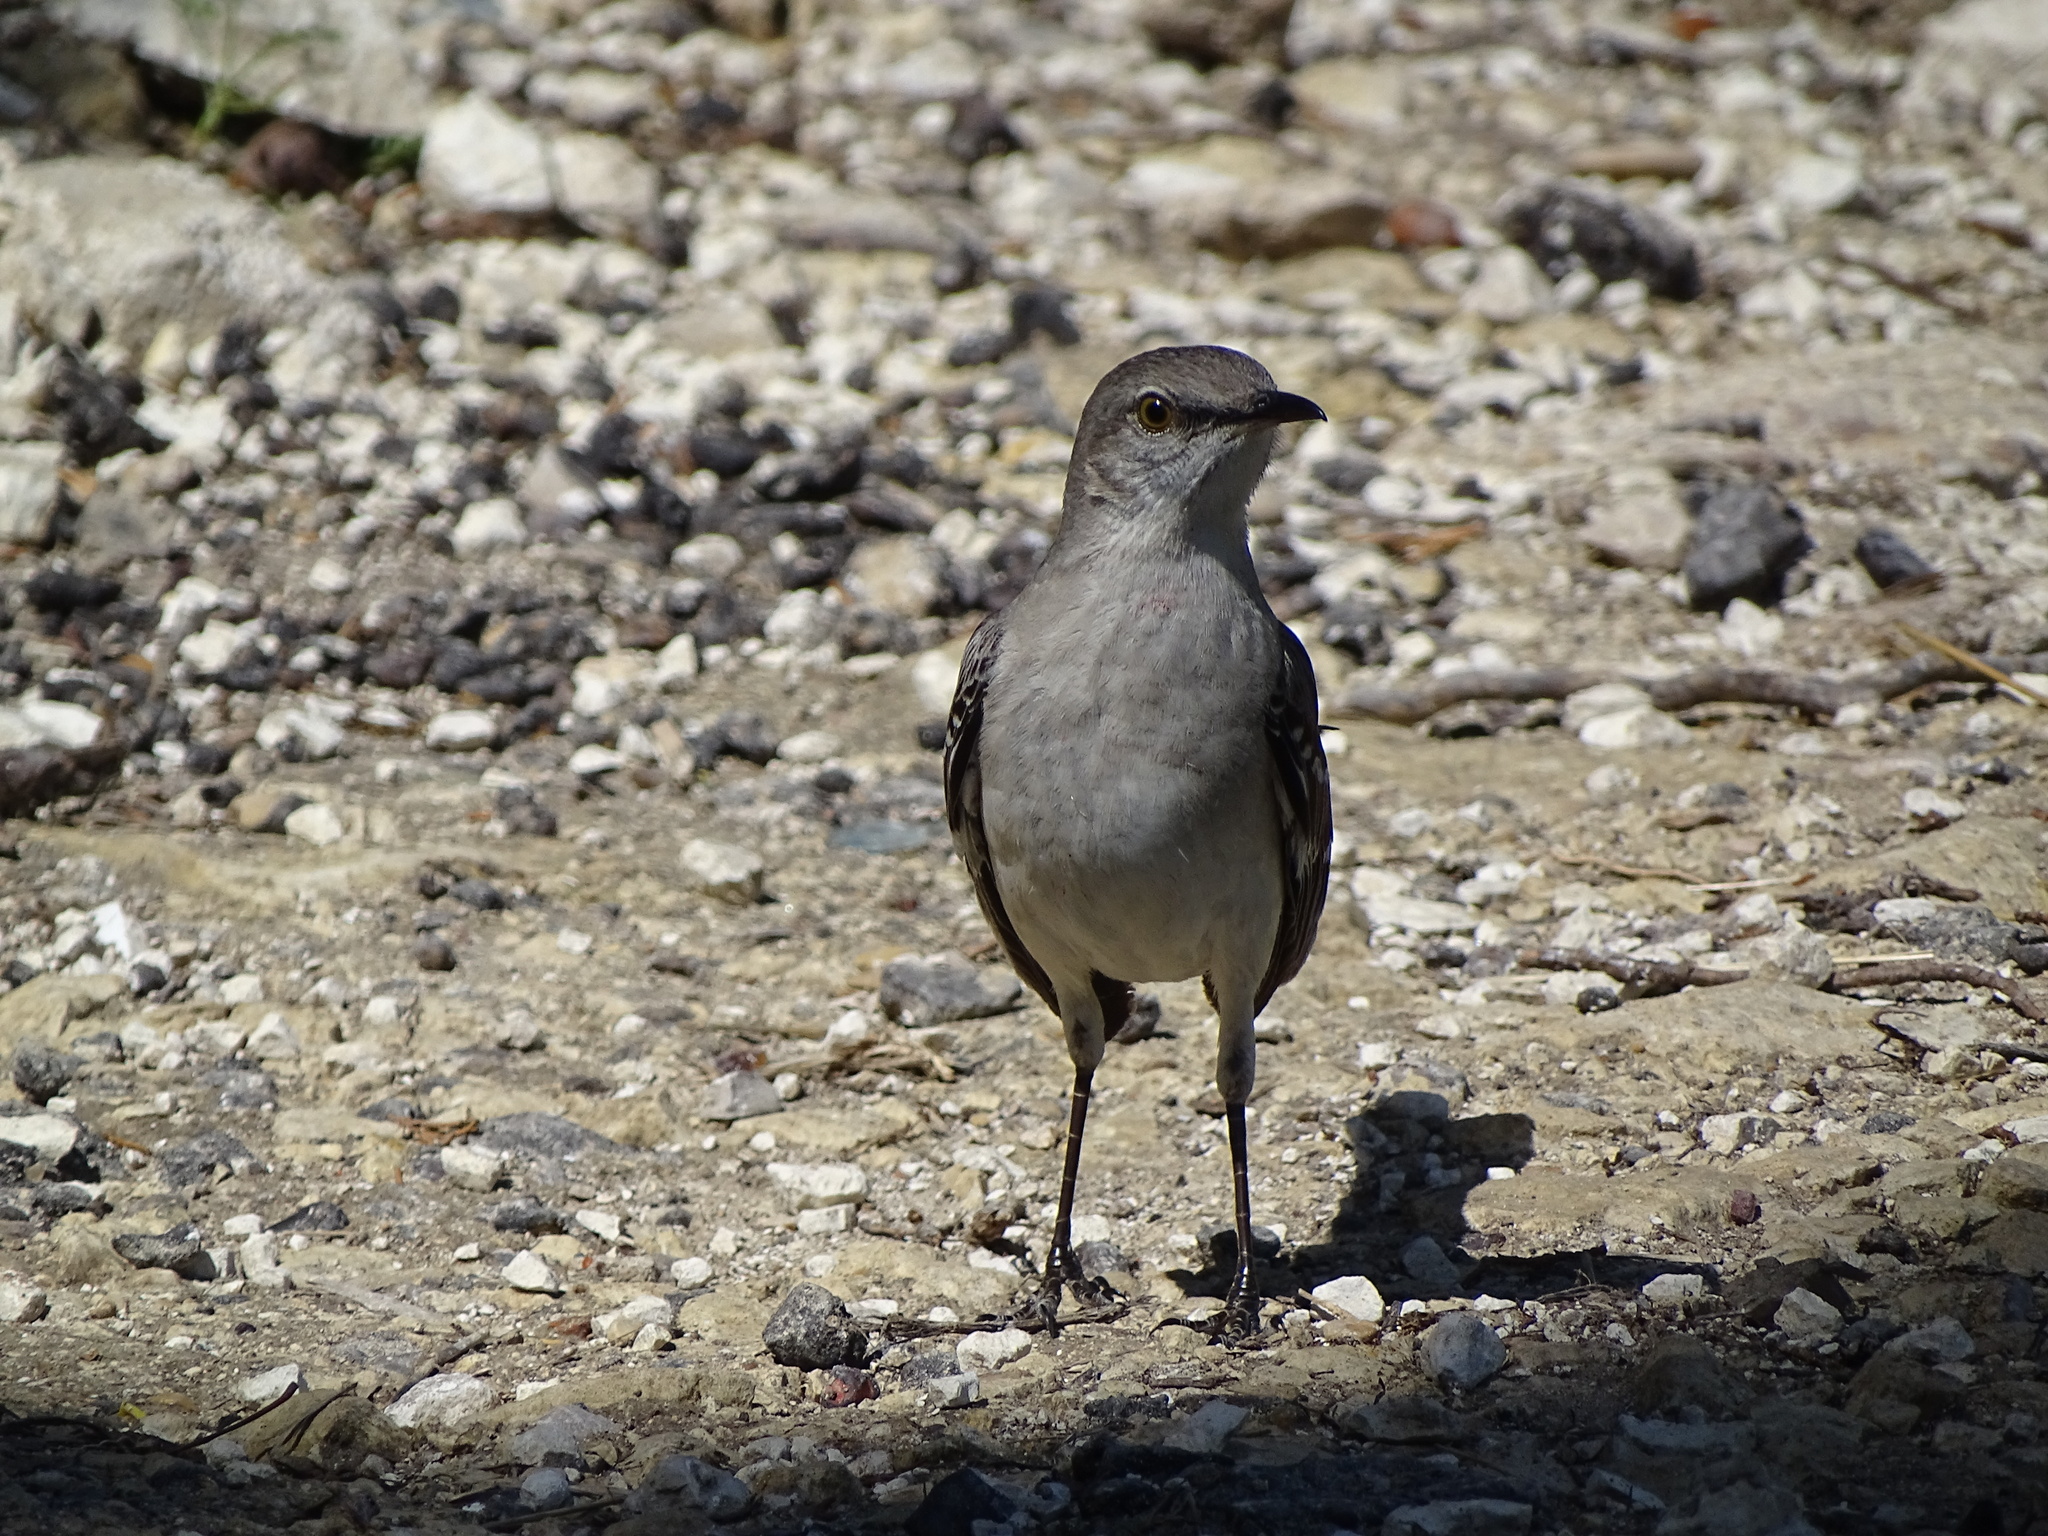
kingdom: Animalia
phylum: Chordata
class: Aves
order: Passeriformes
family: Mimidae
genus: Mimus
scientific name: Mimus polyglottos
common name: Northern mockingbird
